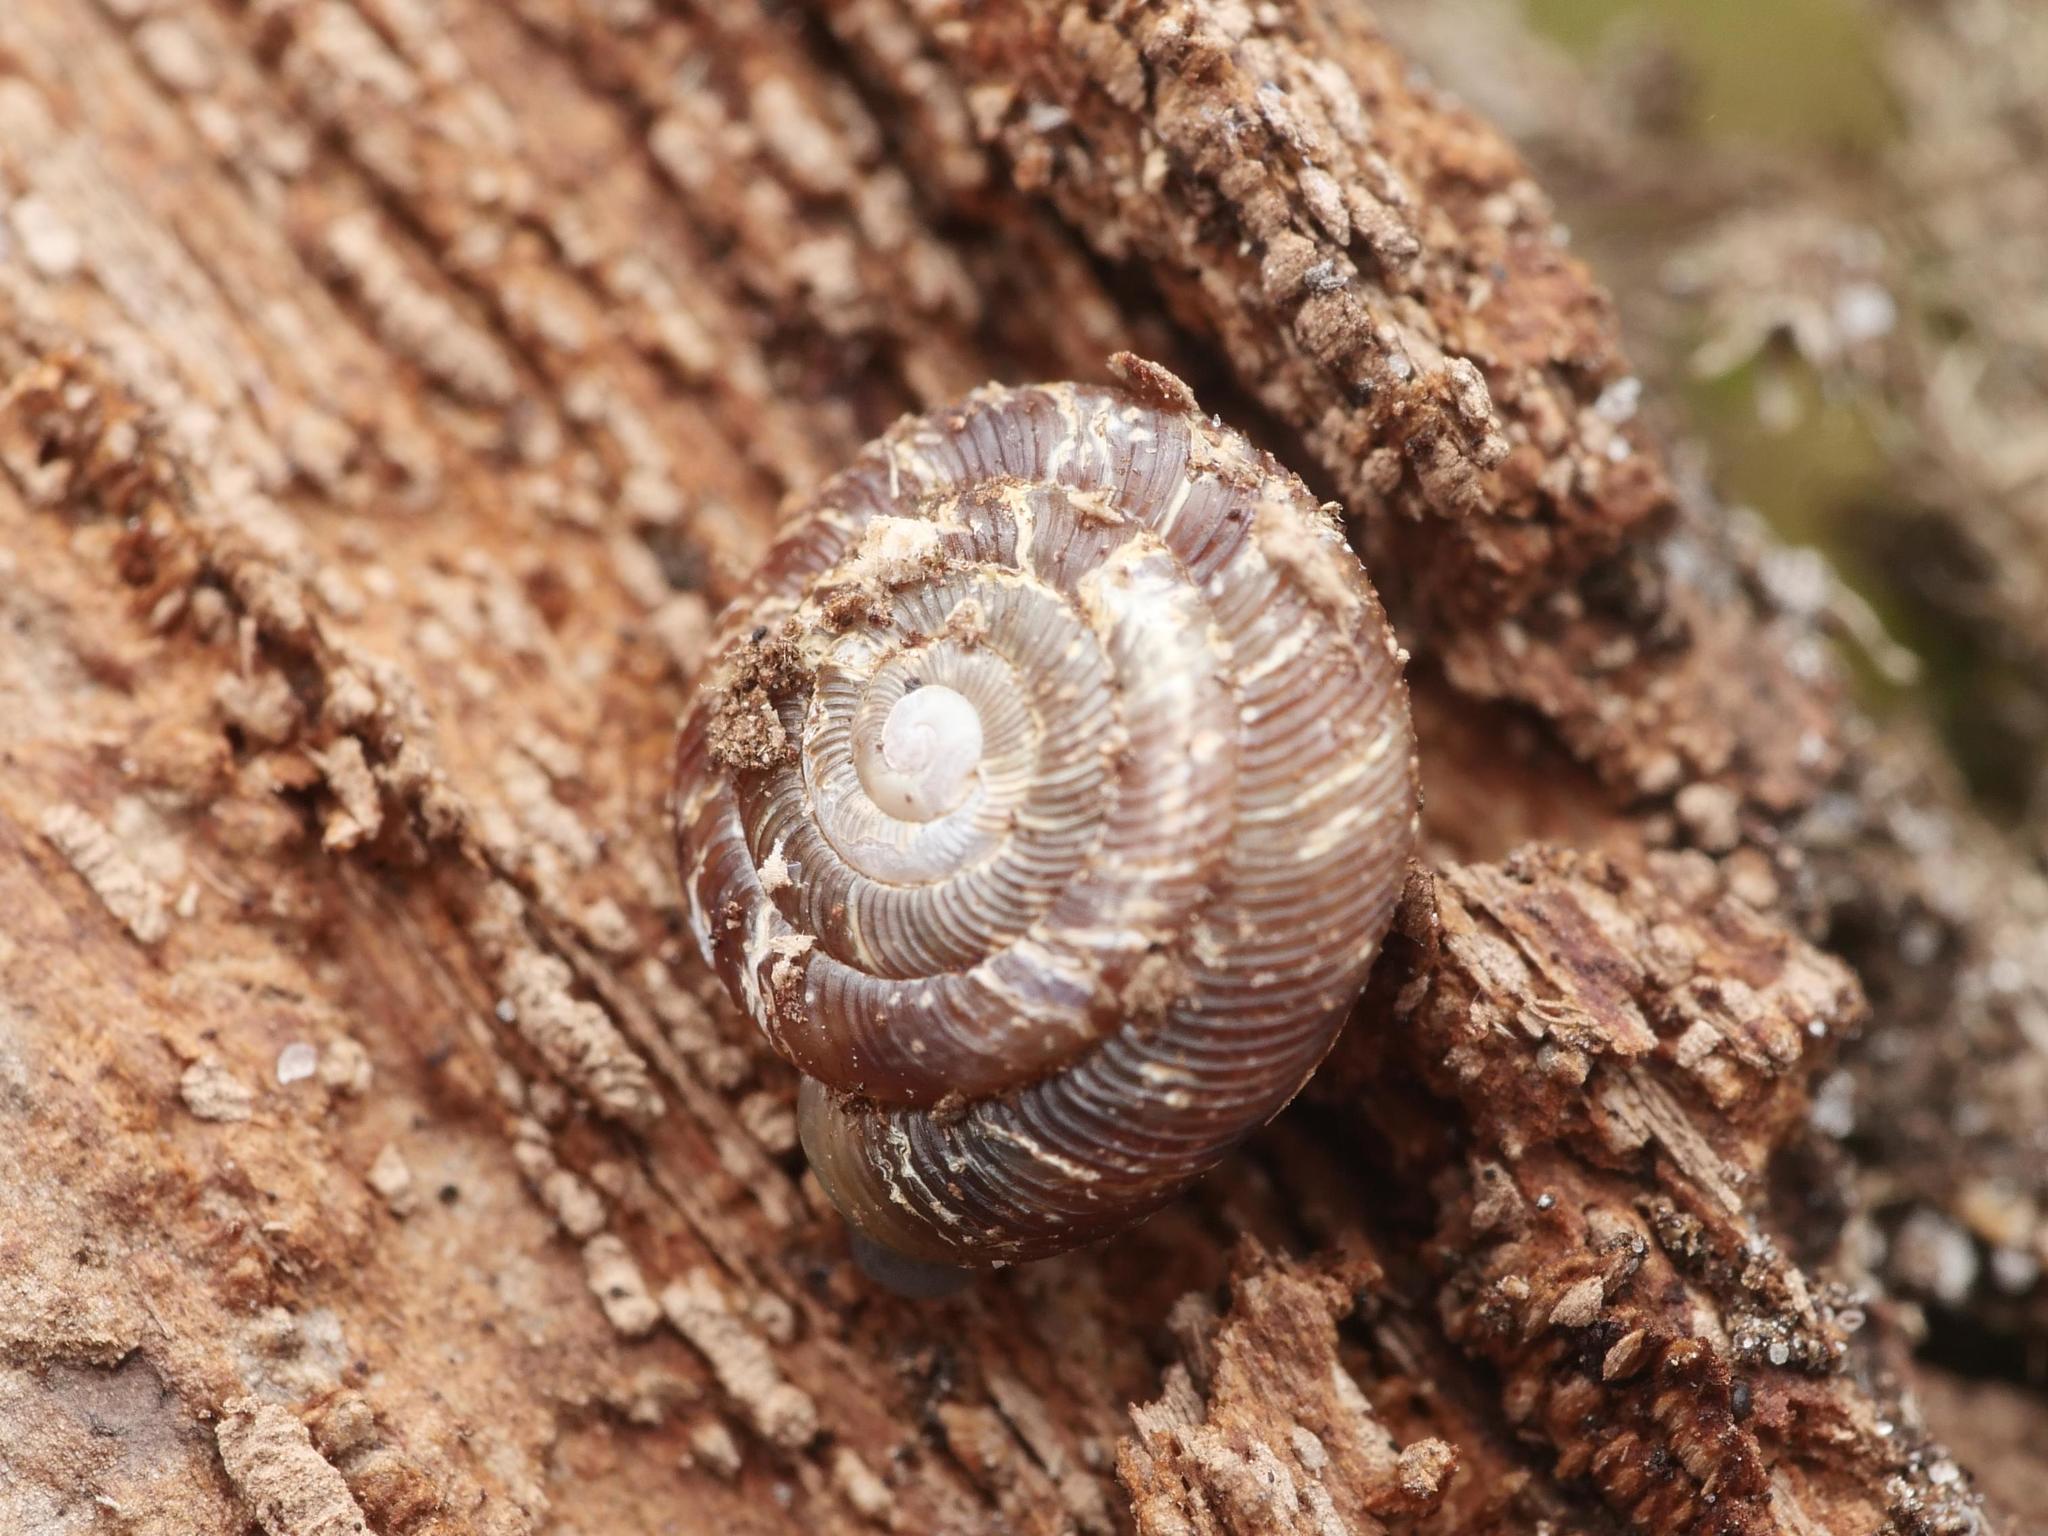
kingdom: Animalia
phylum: Mollusca
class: Gastropoda
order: Stylommatophora
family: Discidae
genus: Discus
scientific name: Discus rotundatus
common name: Rounded snail
